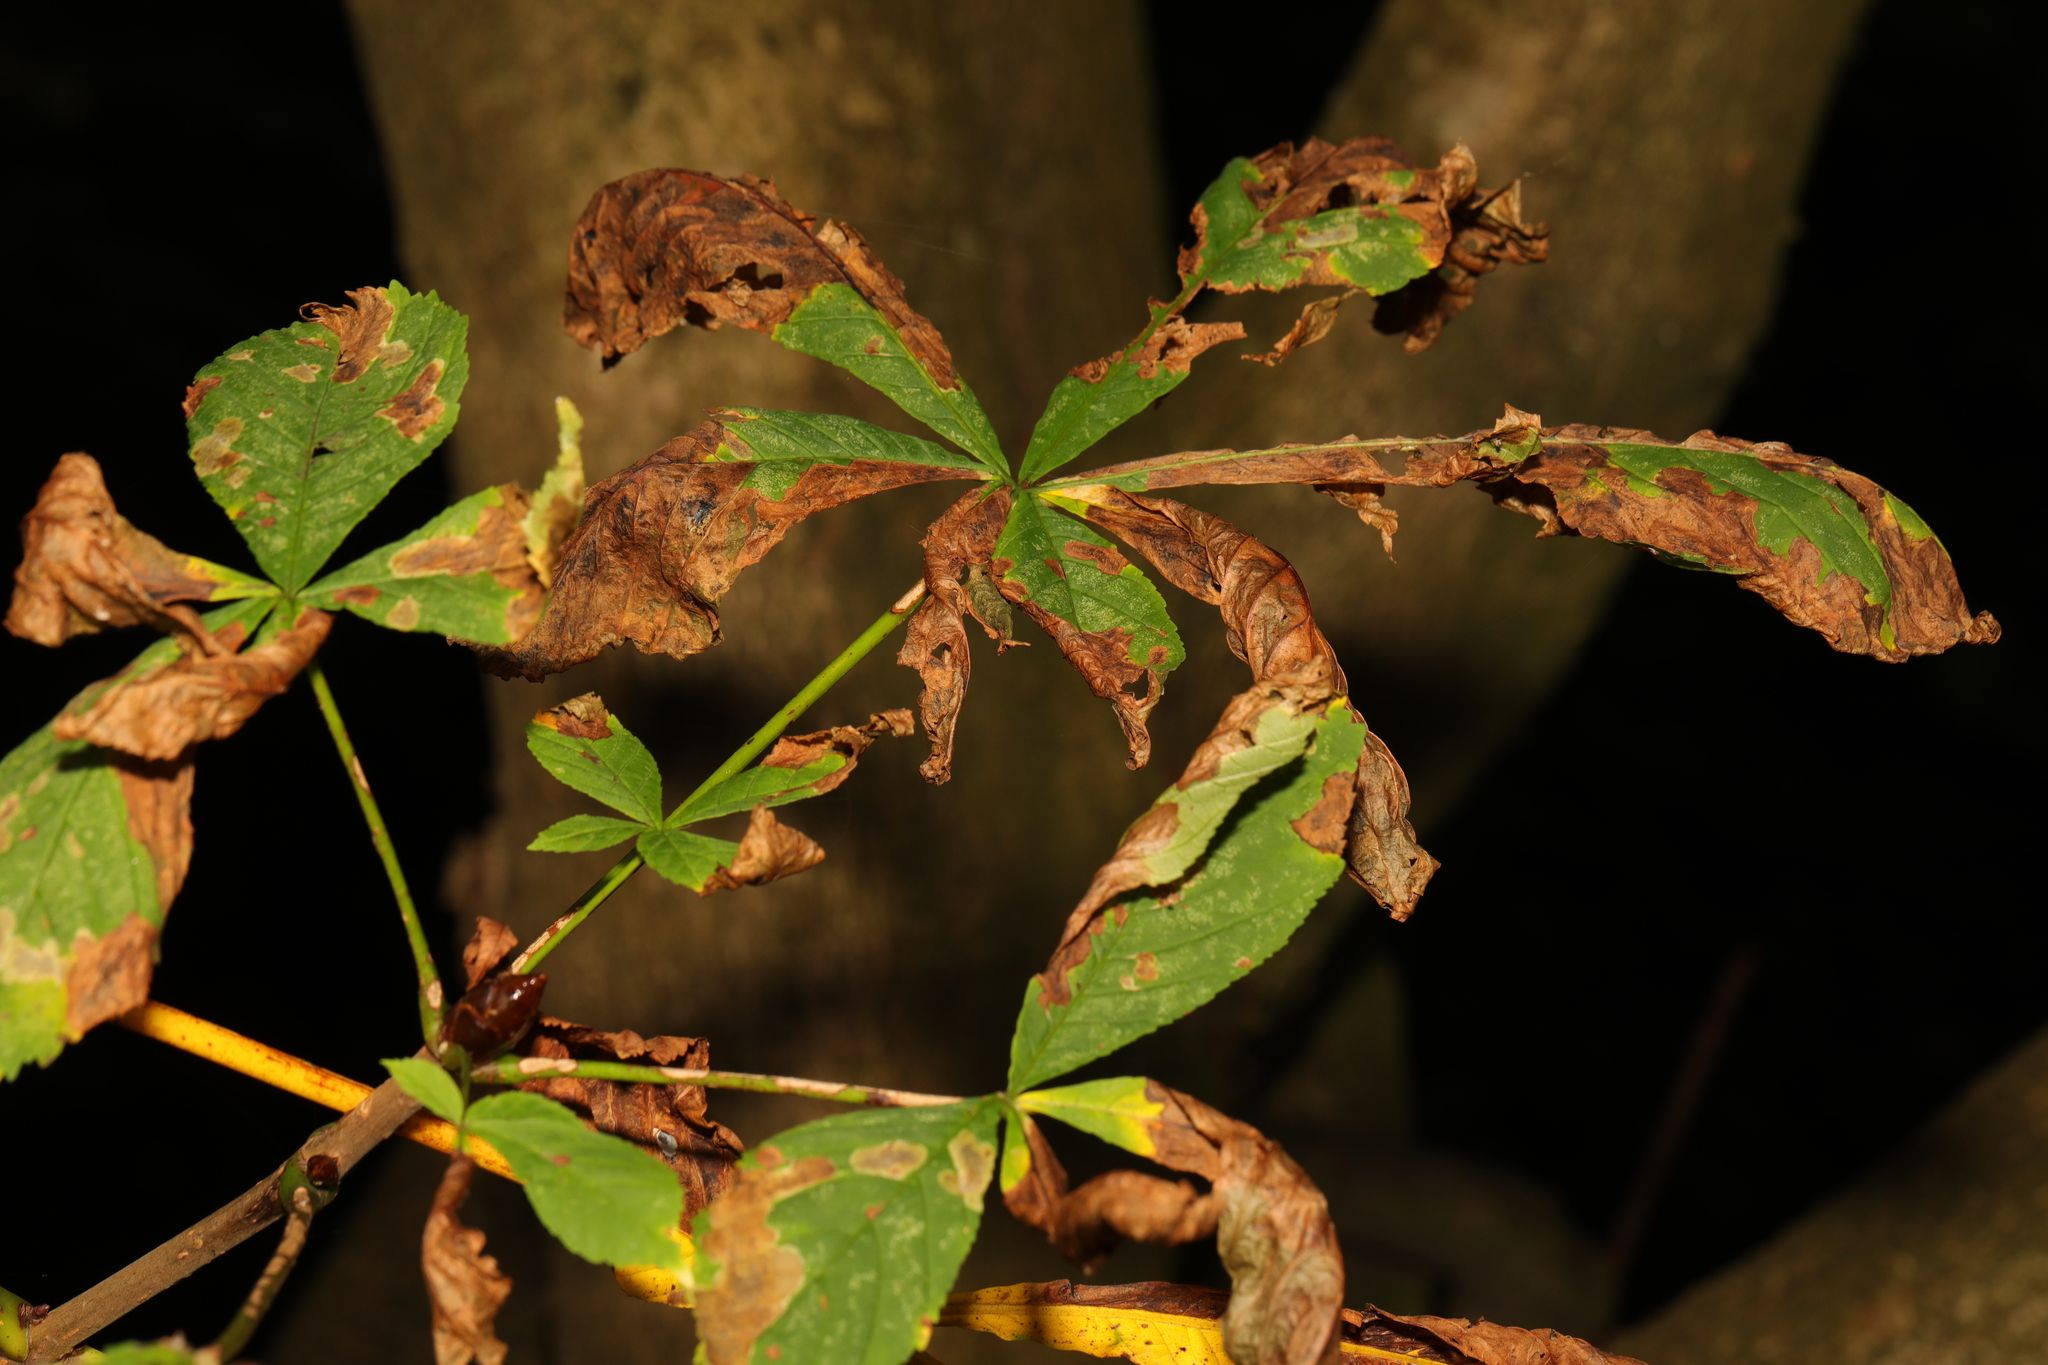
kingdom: Plantae
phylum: Tracheophyta
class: Magnoliopsida
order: Sapindales
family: Sapindaceae
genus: Aesculus
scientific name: Aesculus hippocastanum
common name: Horse-chestnut
